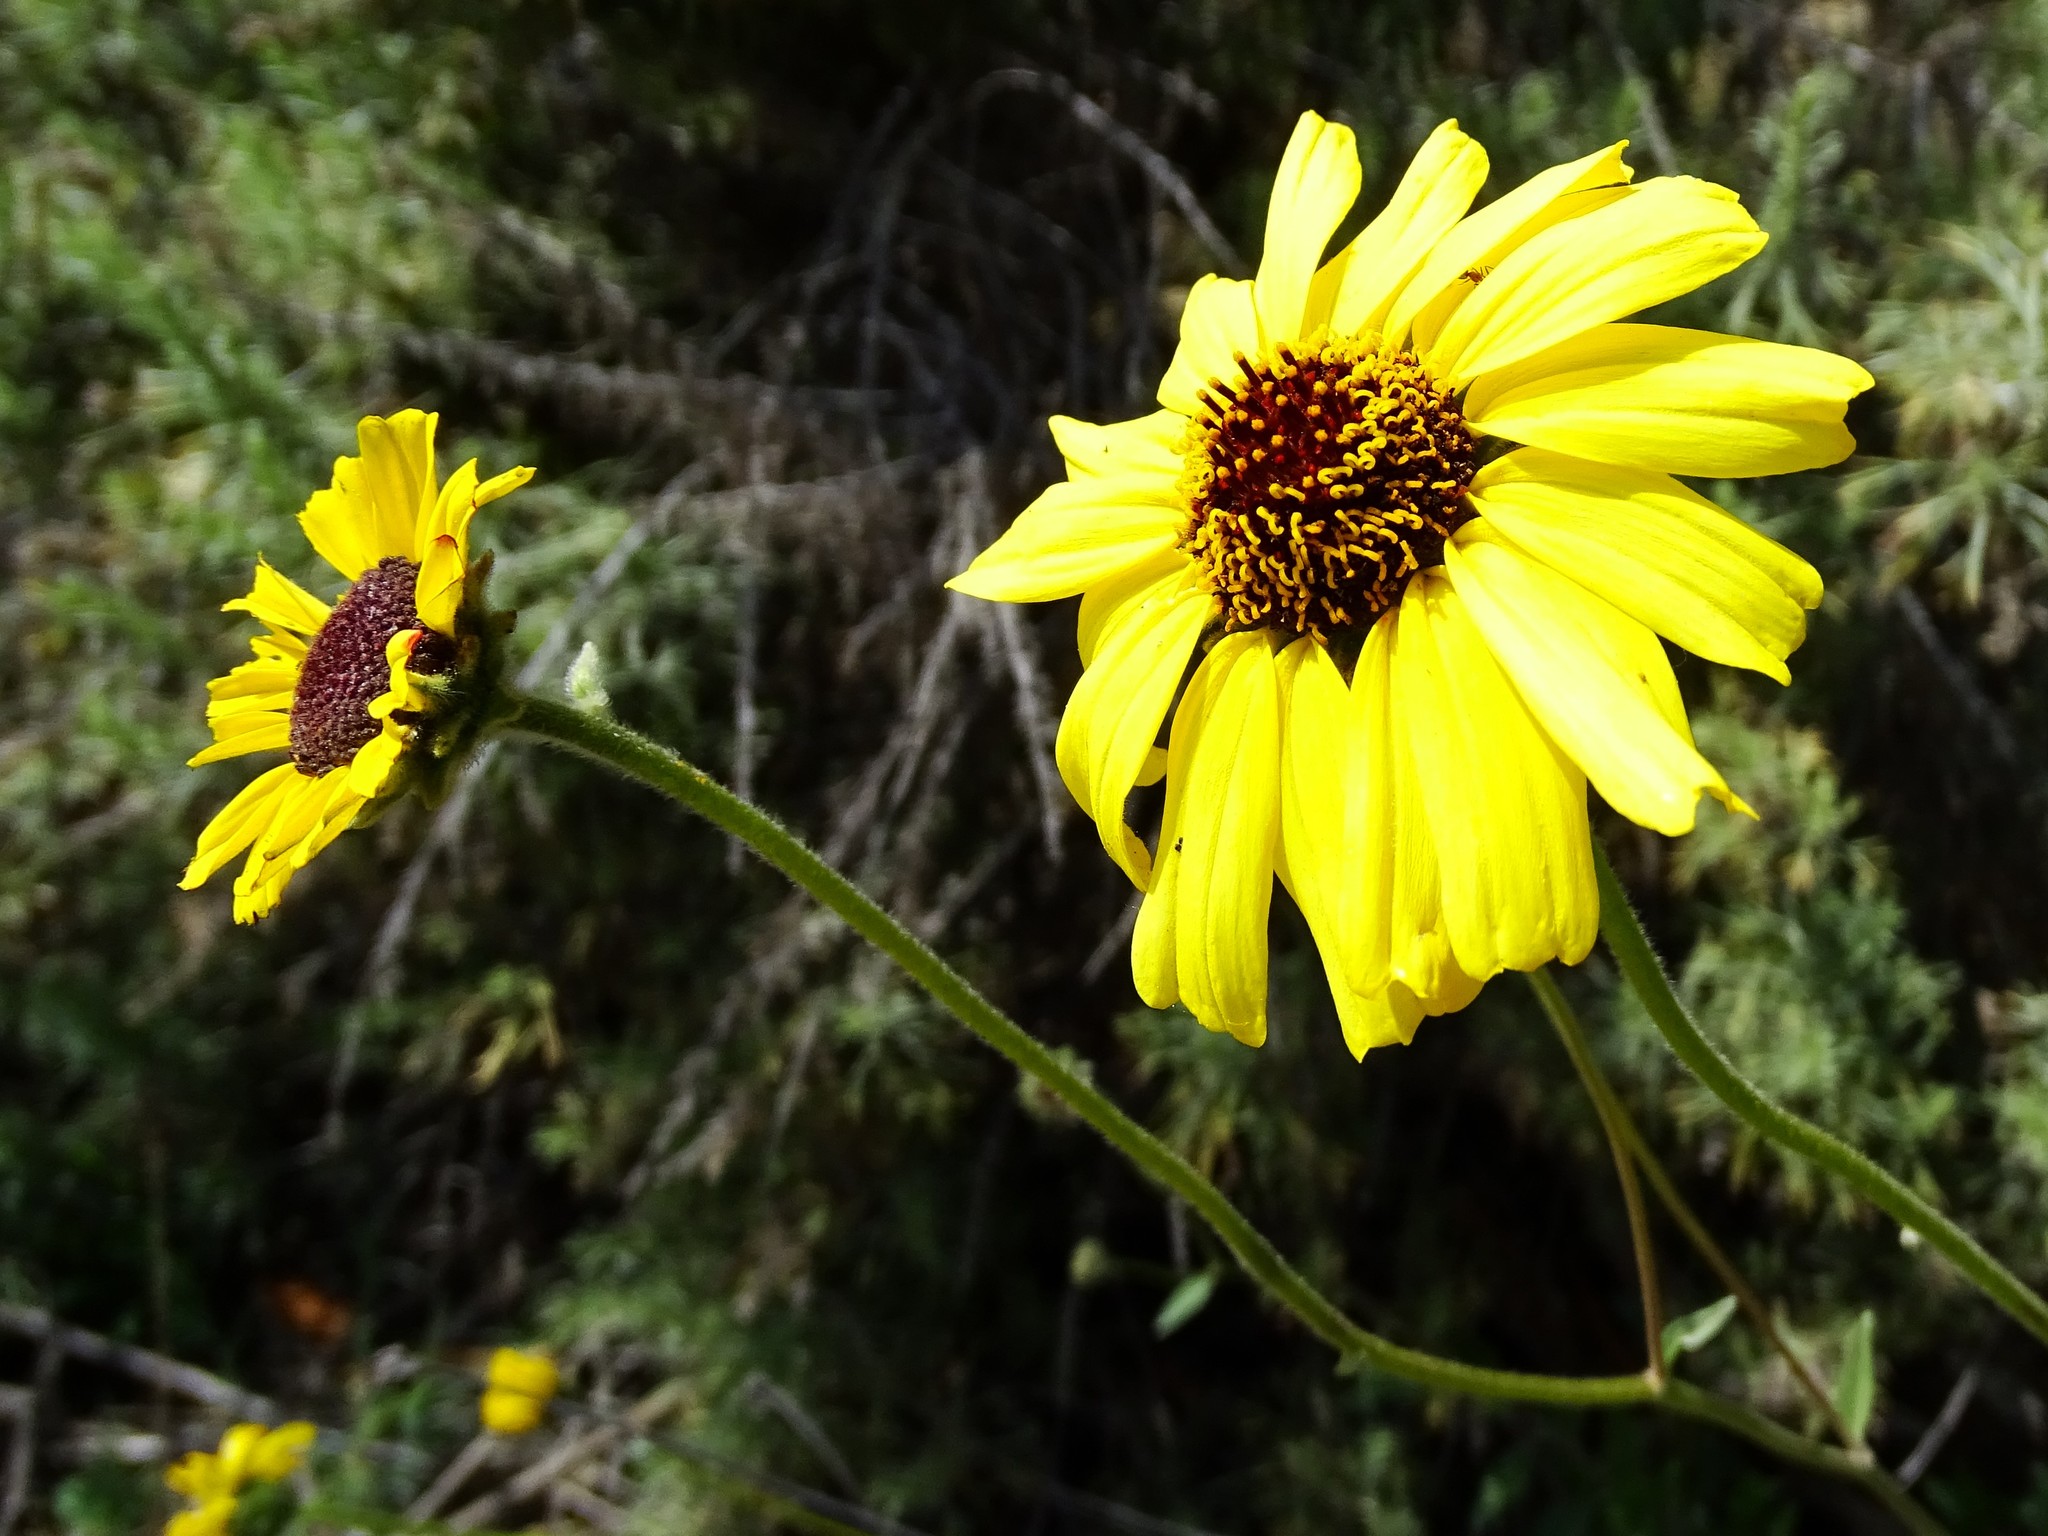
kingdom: Plantae
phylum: Tracheophyta
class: Magnoliopsida
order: Asterales
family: Asteraceae
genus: Encelia
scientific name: Encelia californica
